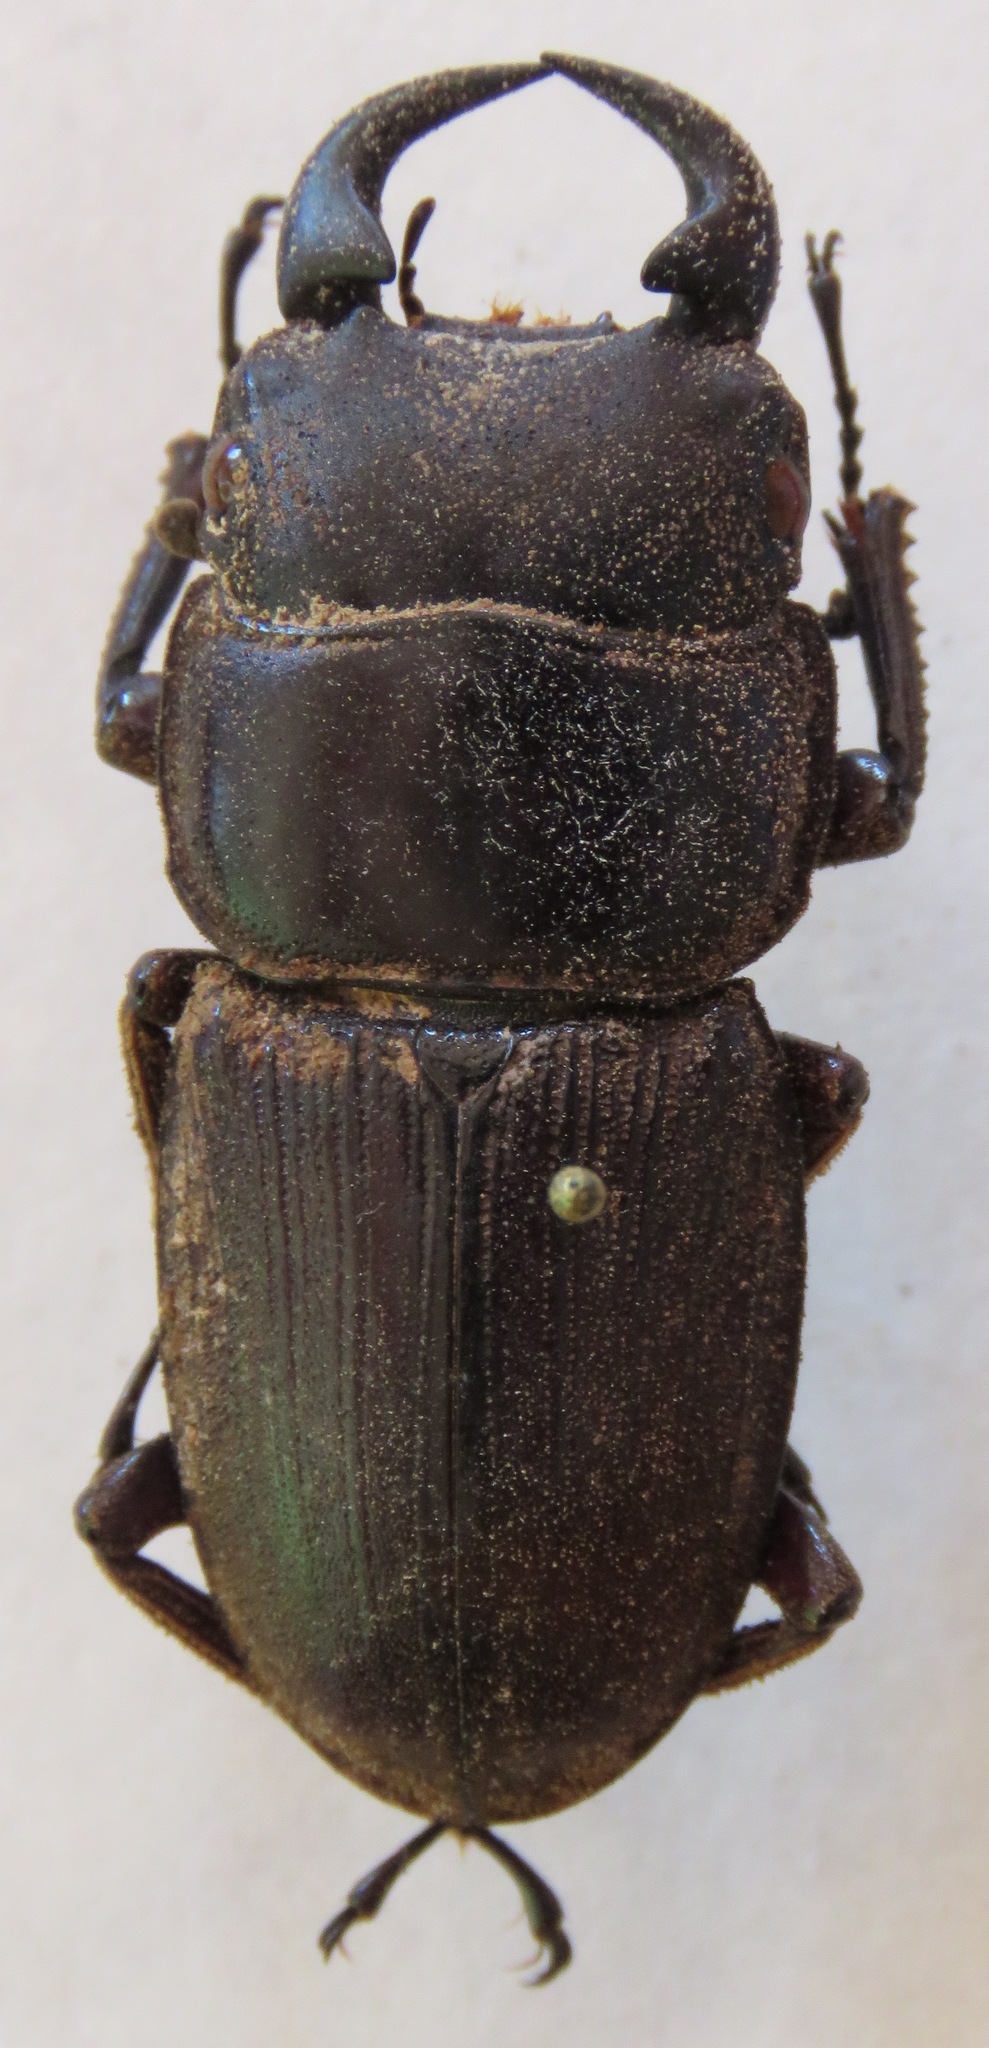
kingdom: Animalia
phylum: Arthropoda
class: Insecta
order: Coleoptera
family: Lucanidae
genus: Dorcus
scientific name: Dorcus ritsemae
